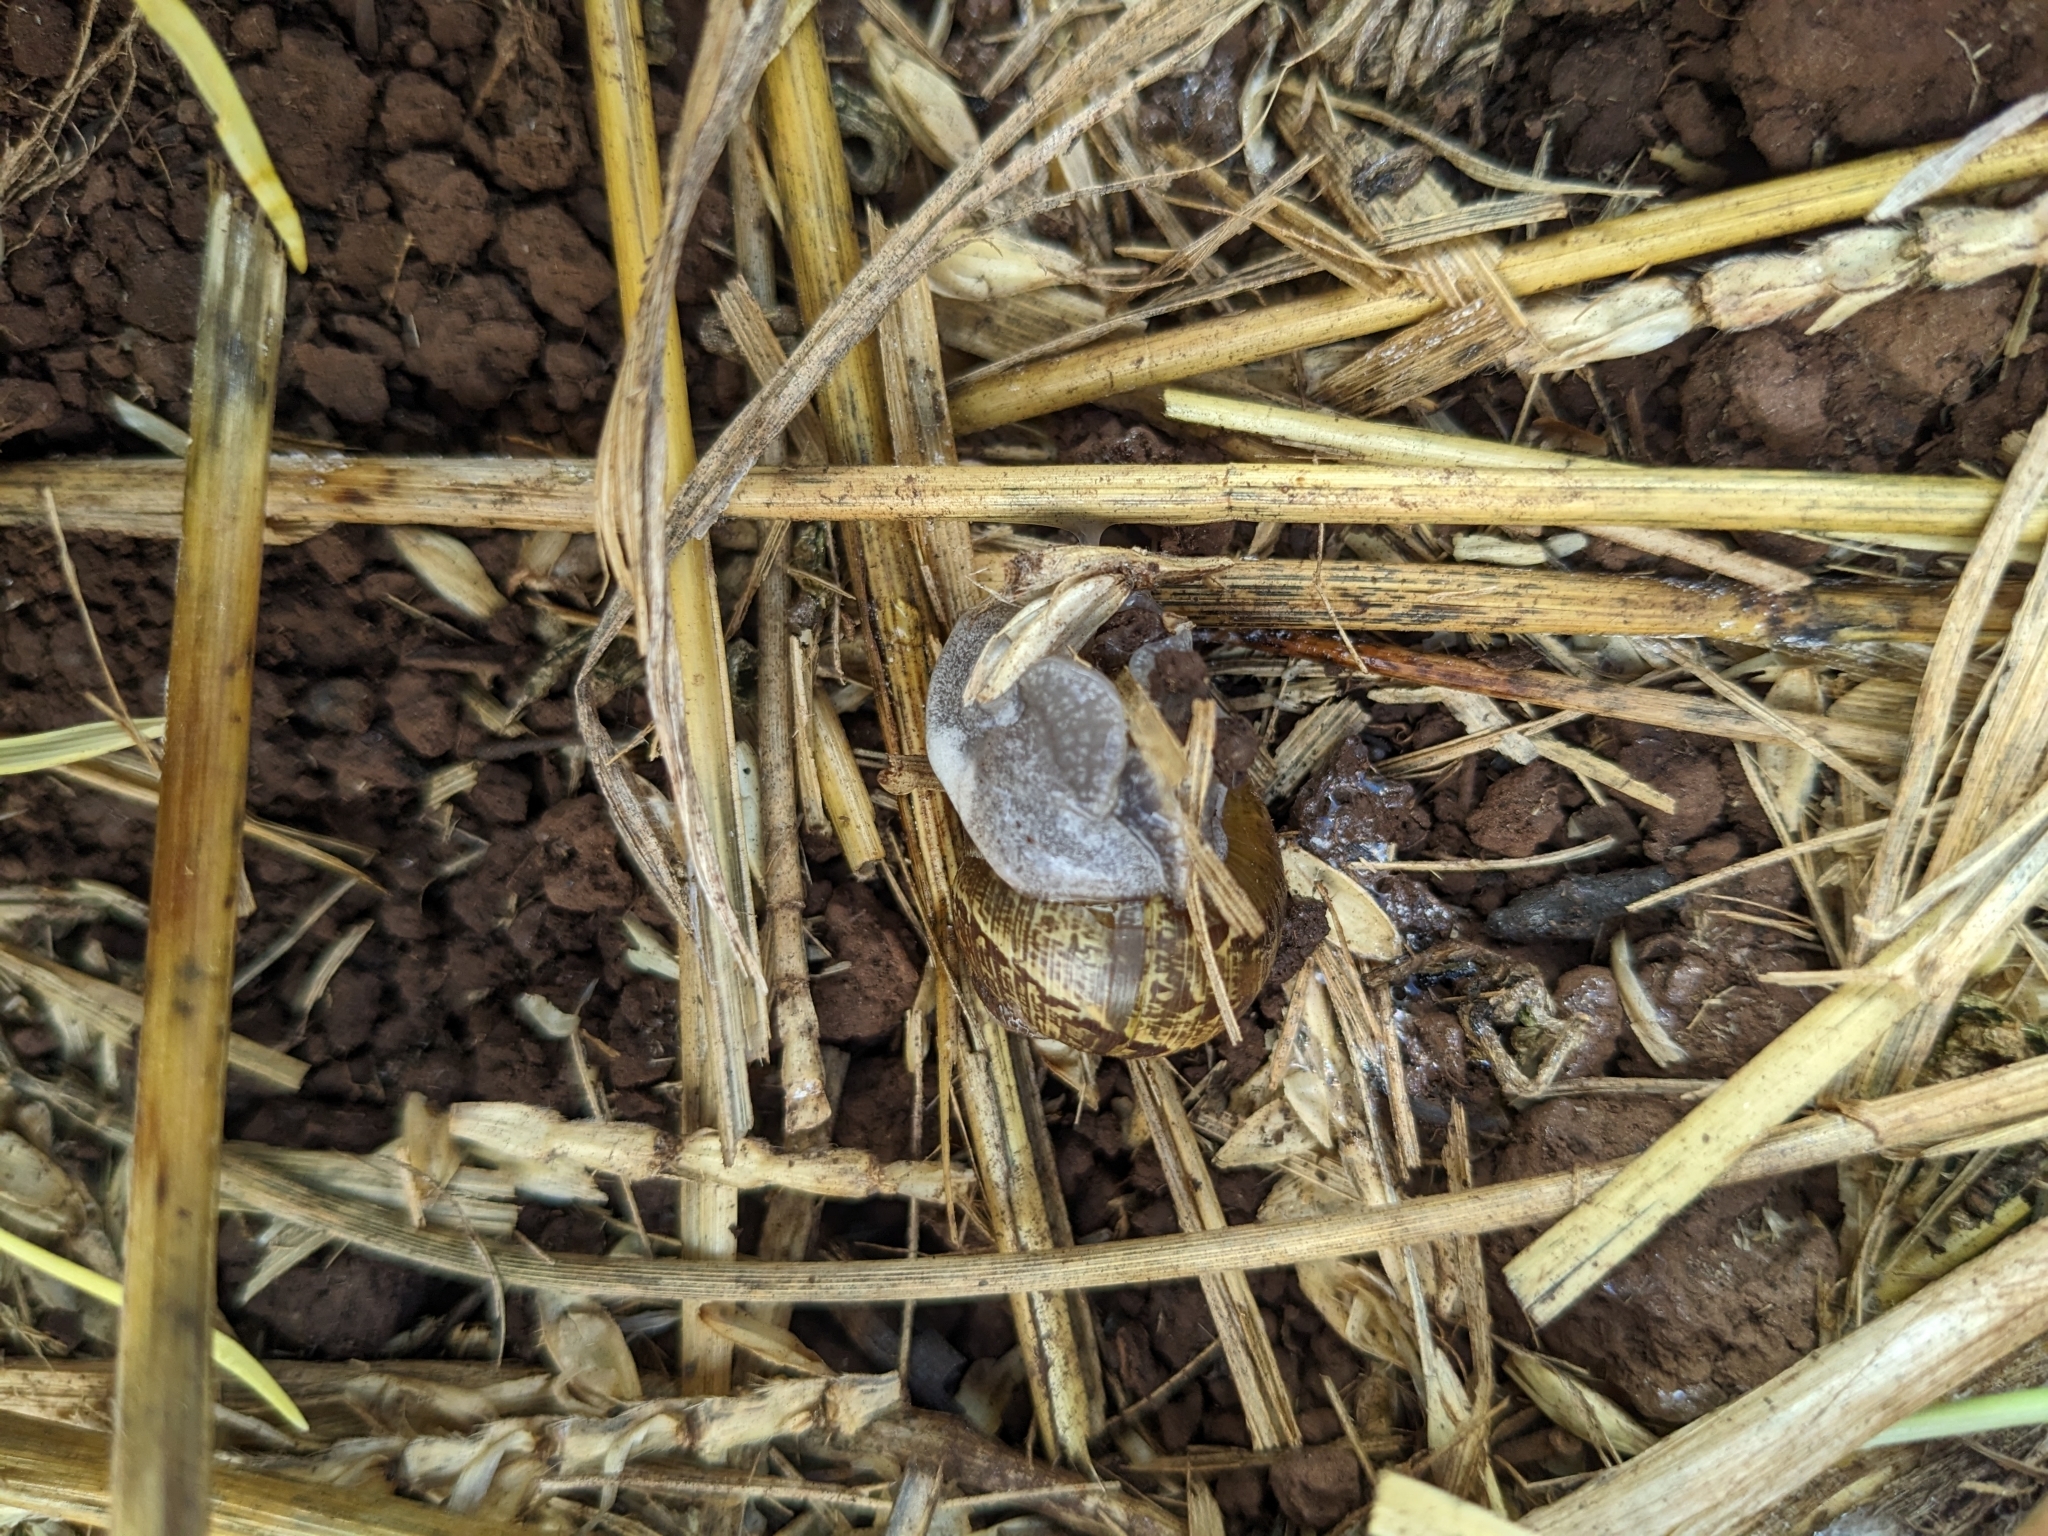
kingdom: Animalia
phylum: Mollusca
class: Gastropoda
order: Stylommatophora
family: Helicidae
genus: Cornu
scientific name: Cornu aspersum
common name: Brown garden snail
